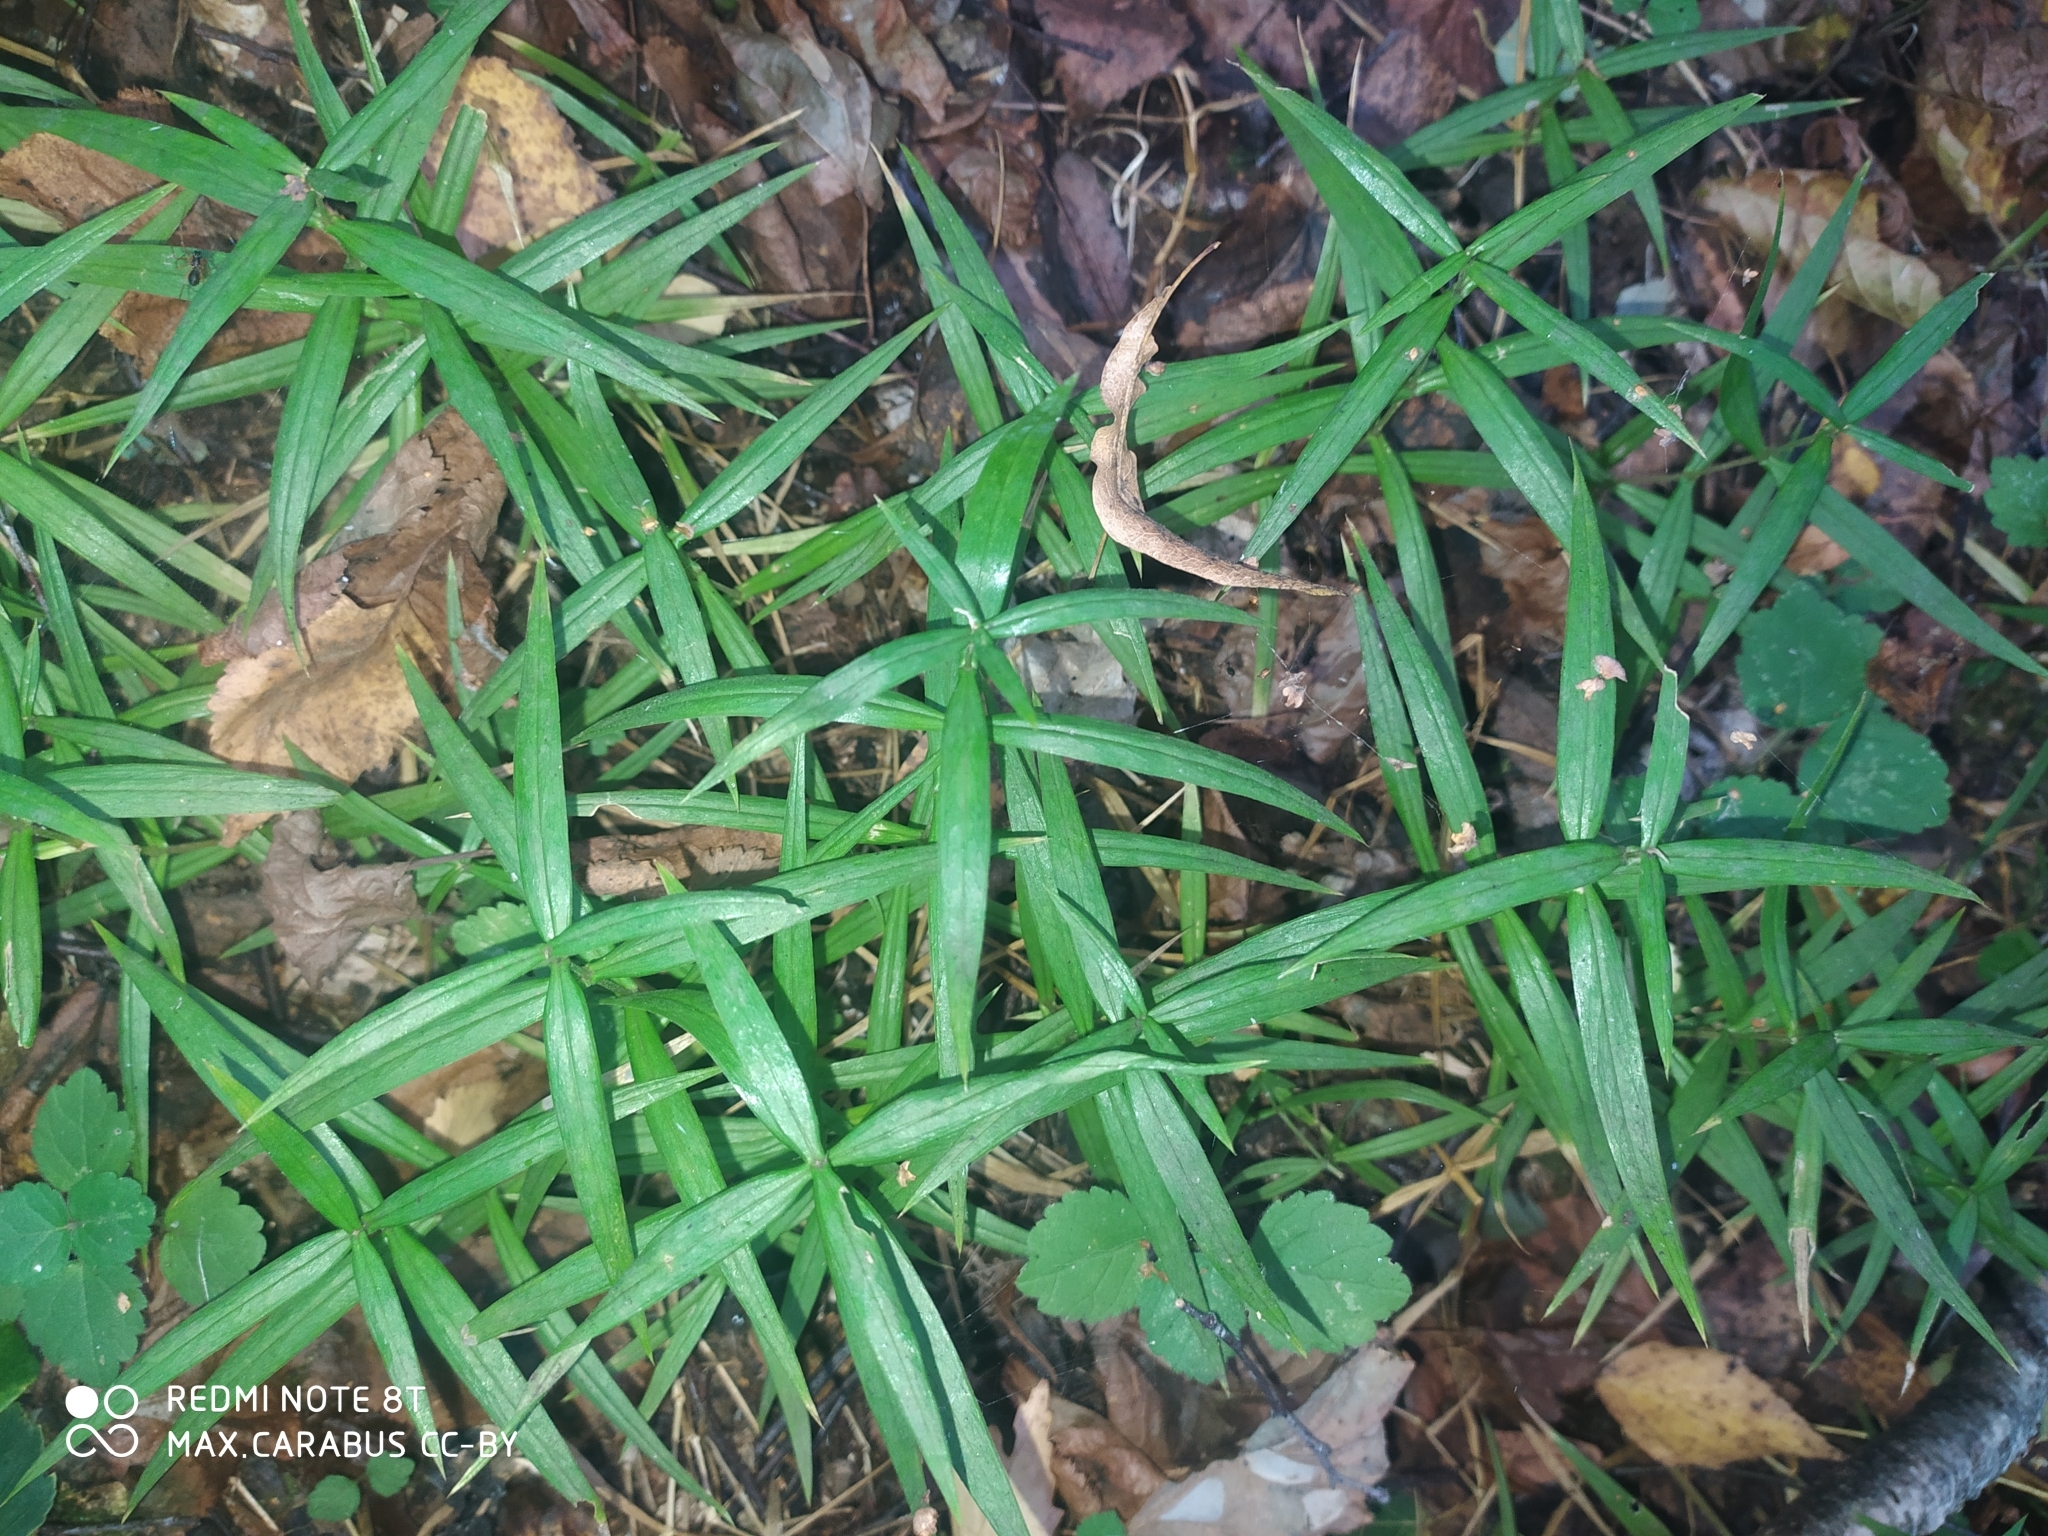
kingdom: Plantae
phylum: Tracheophyta
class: Magnoliopsida
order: Caryophyllales
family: Caryophyllaceae
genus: Rabelera
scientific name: Rabelera holostea
